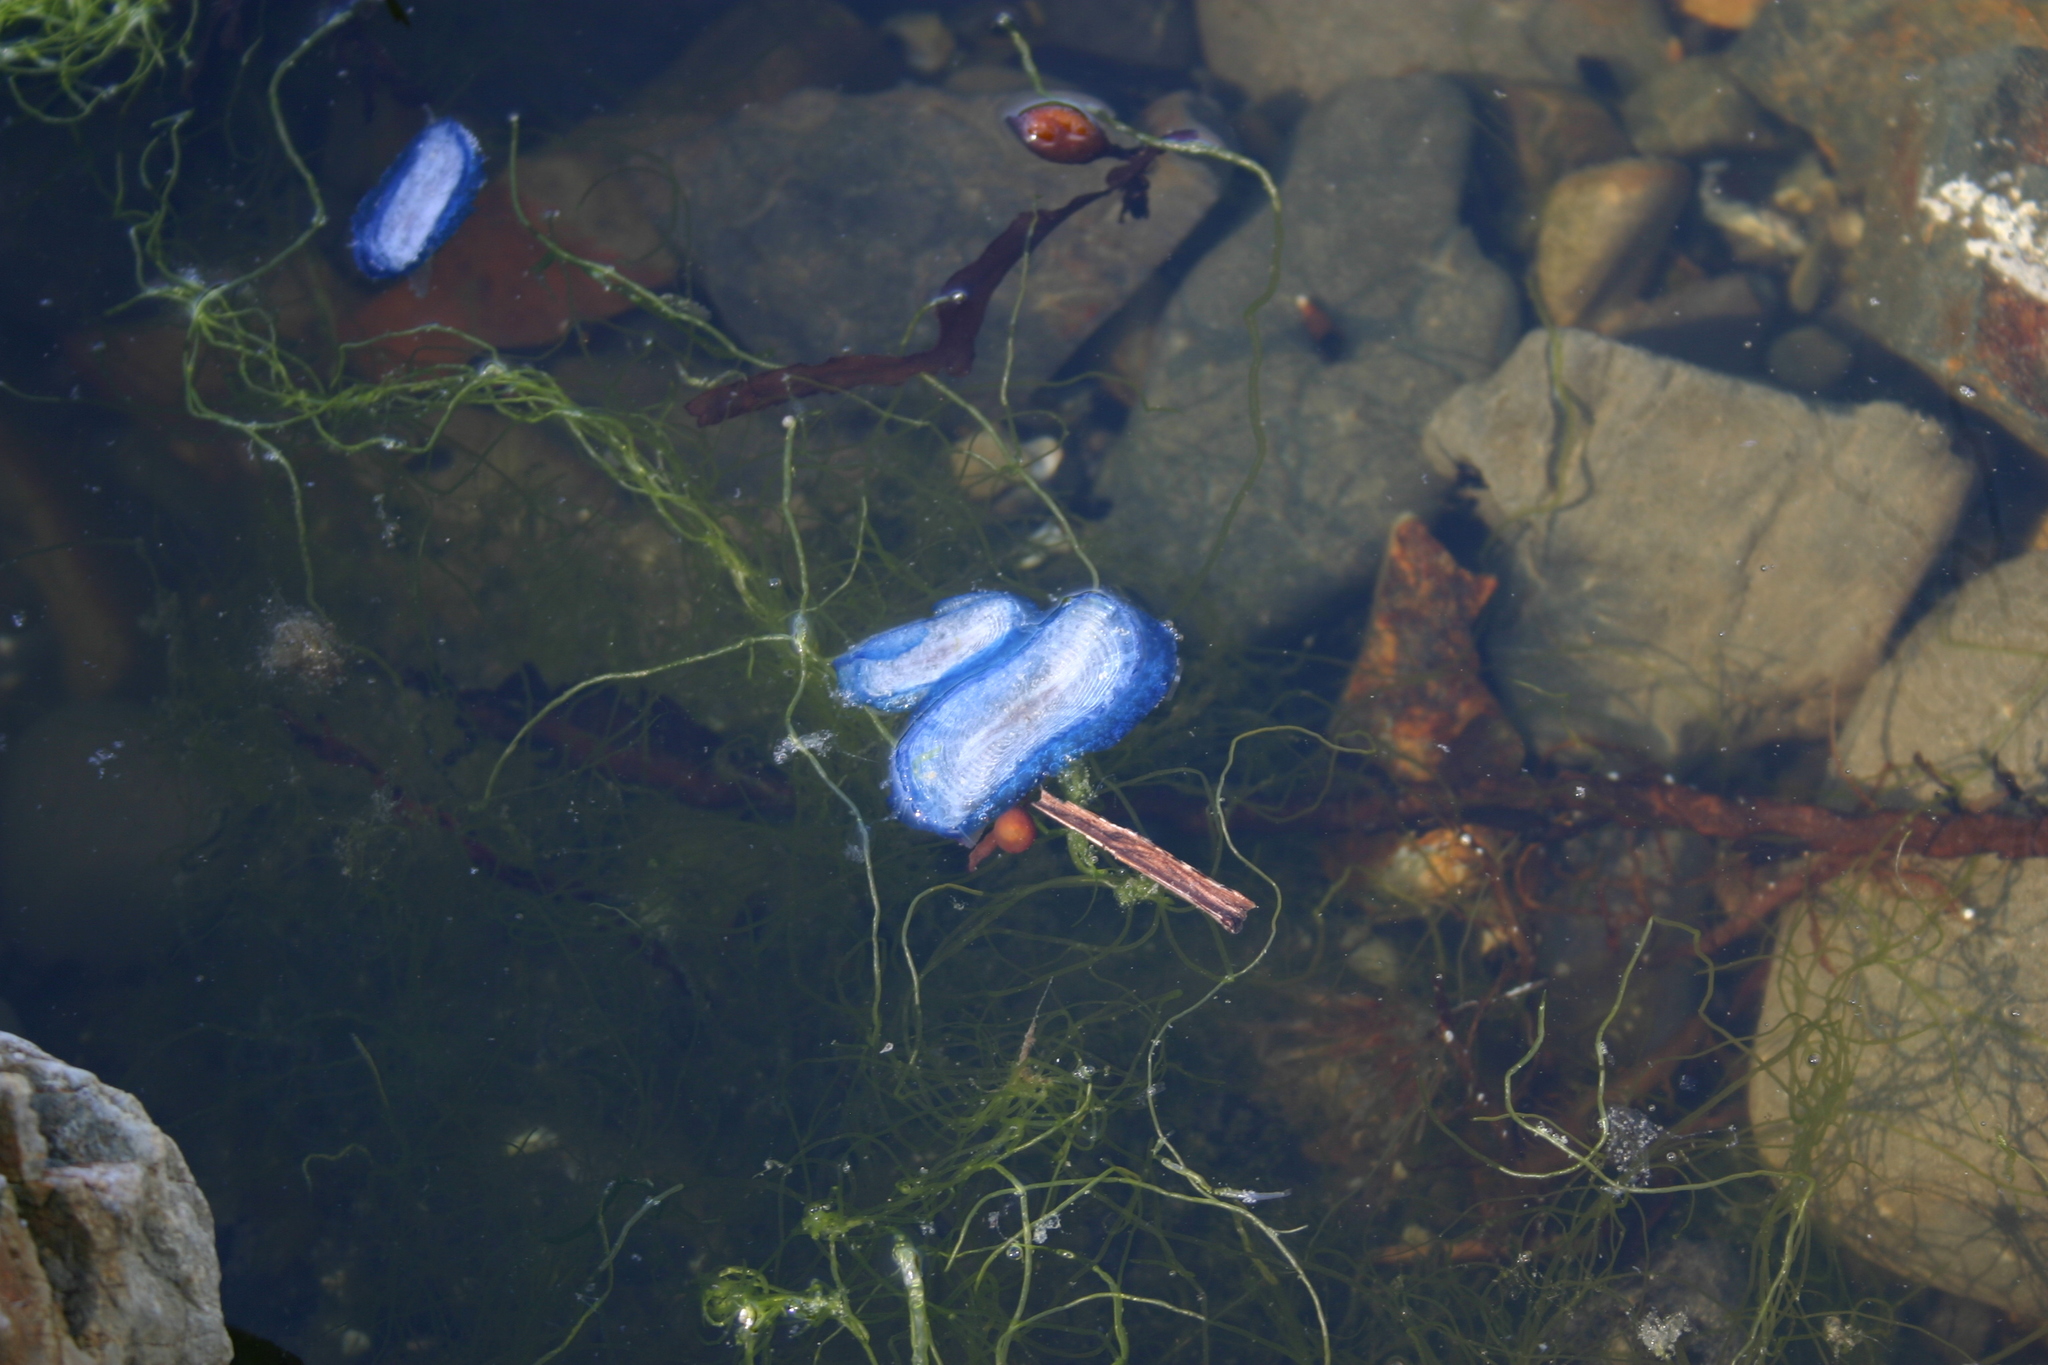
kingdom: Animalia
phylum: Cnidaria
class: Hydrozoa
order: Anthoathecata
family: Porpitidae
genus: Velella
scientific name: Velella velella
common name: By-the-wind-sailor
